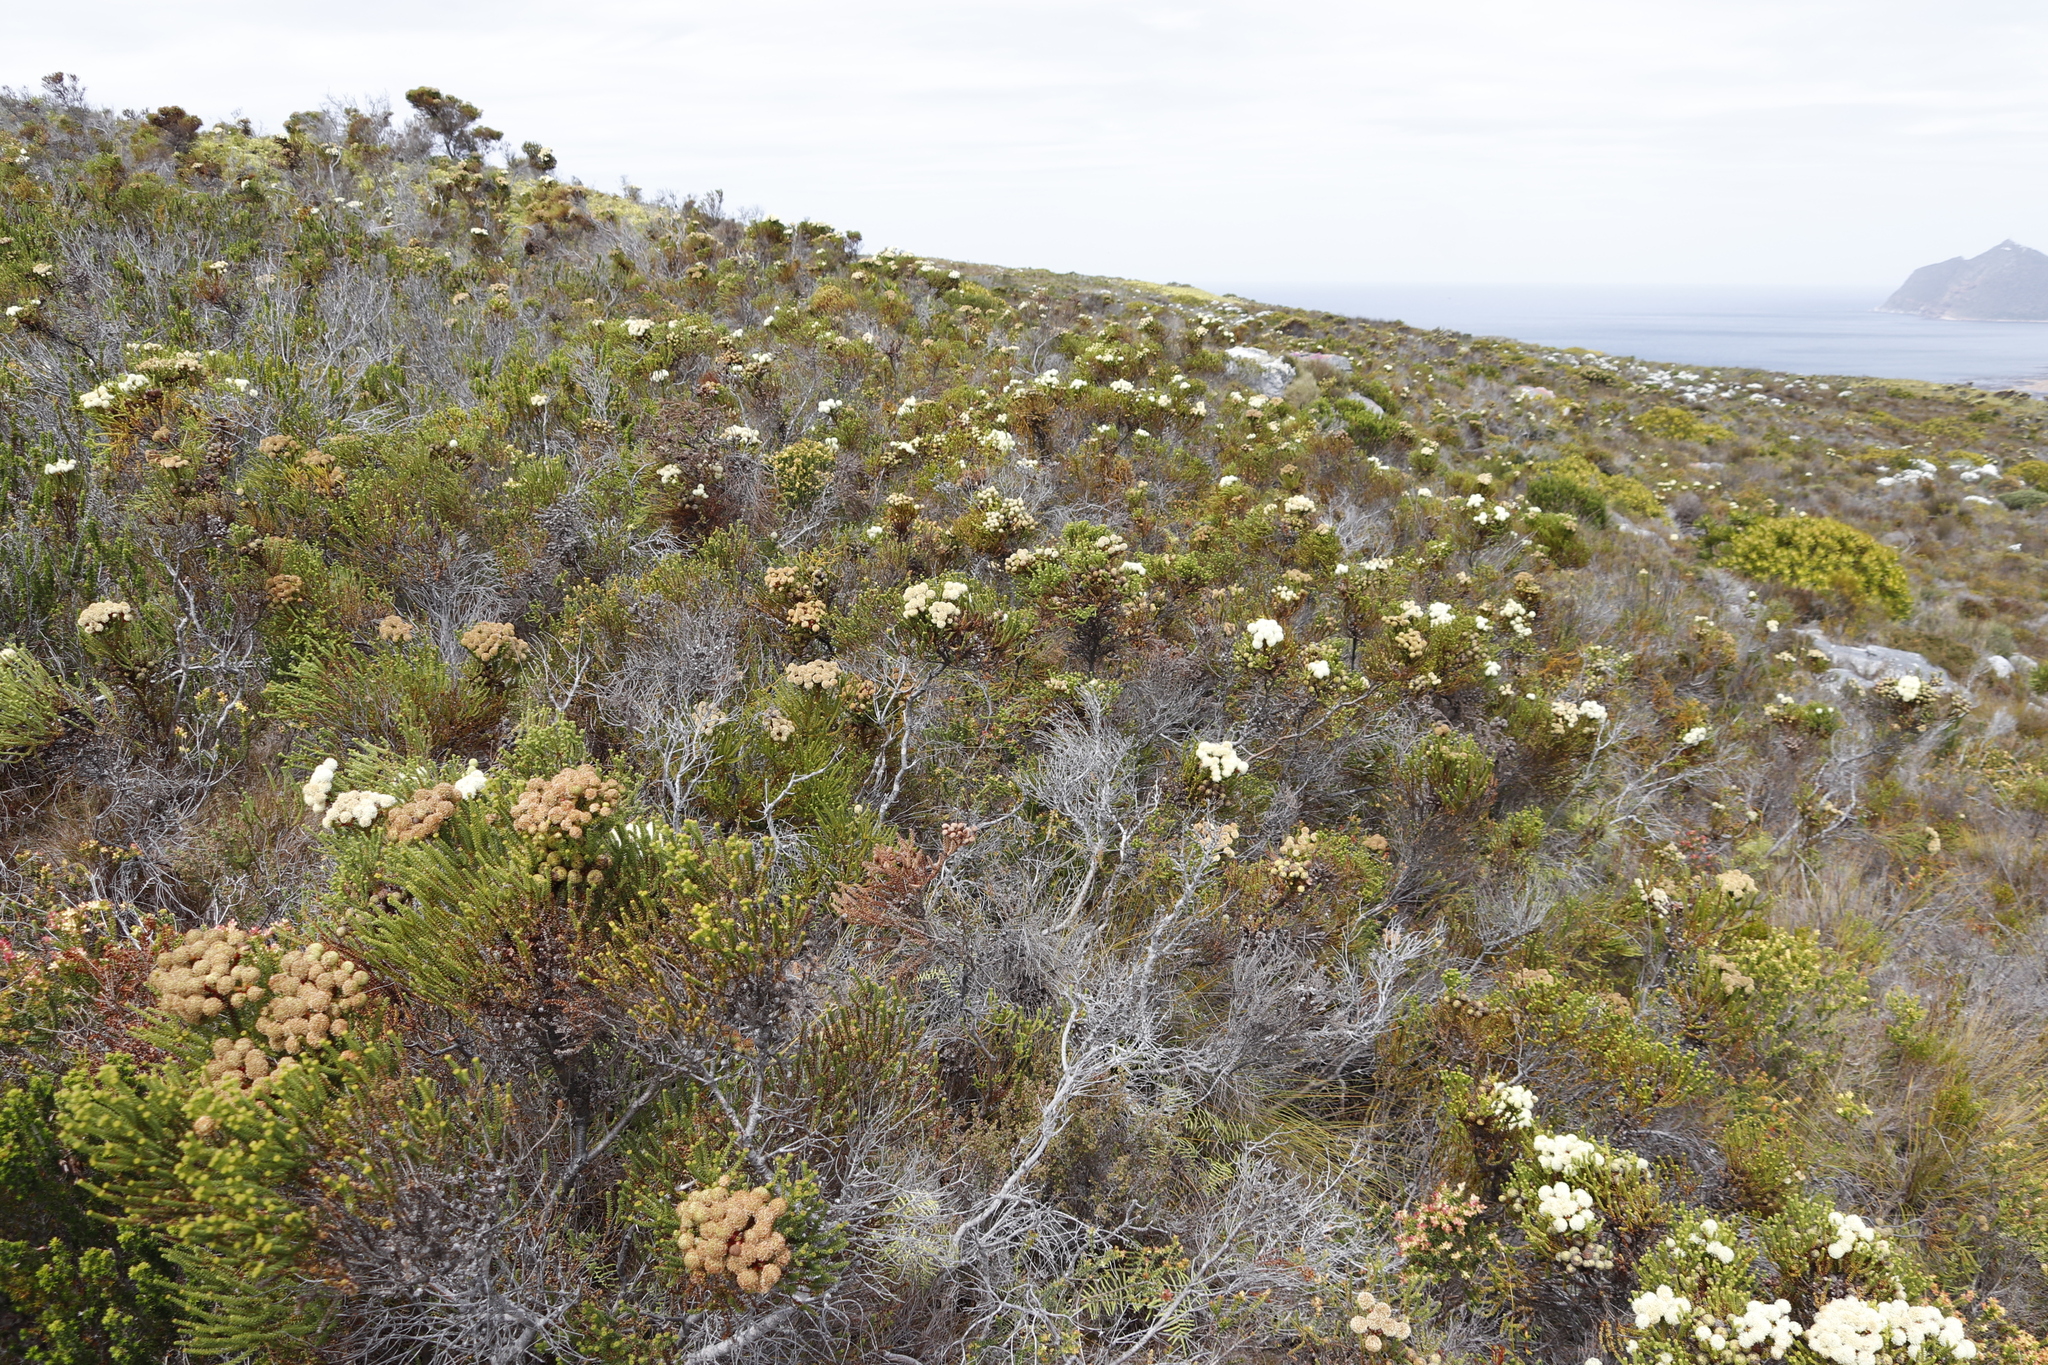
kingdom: Plantae
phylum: Tracheophyta
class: Magnoliopsida
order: Bruniales
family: Bruniaceae
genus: Berzelia
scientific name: Berzelia abrotanoides
